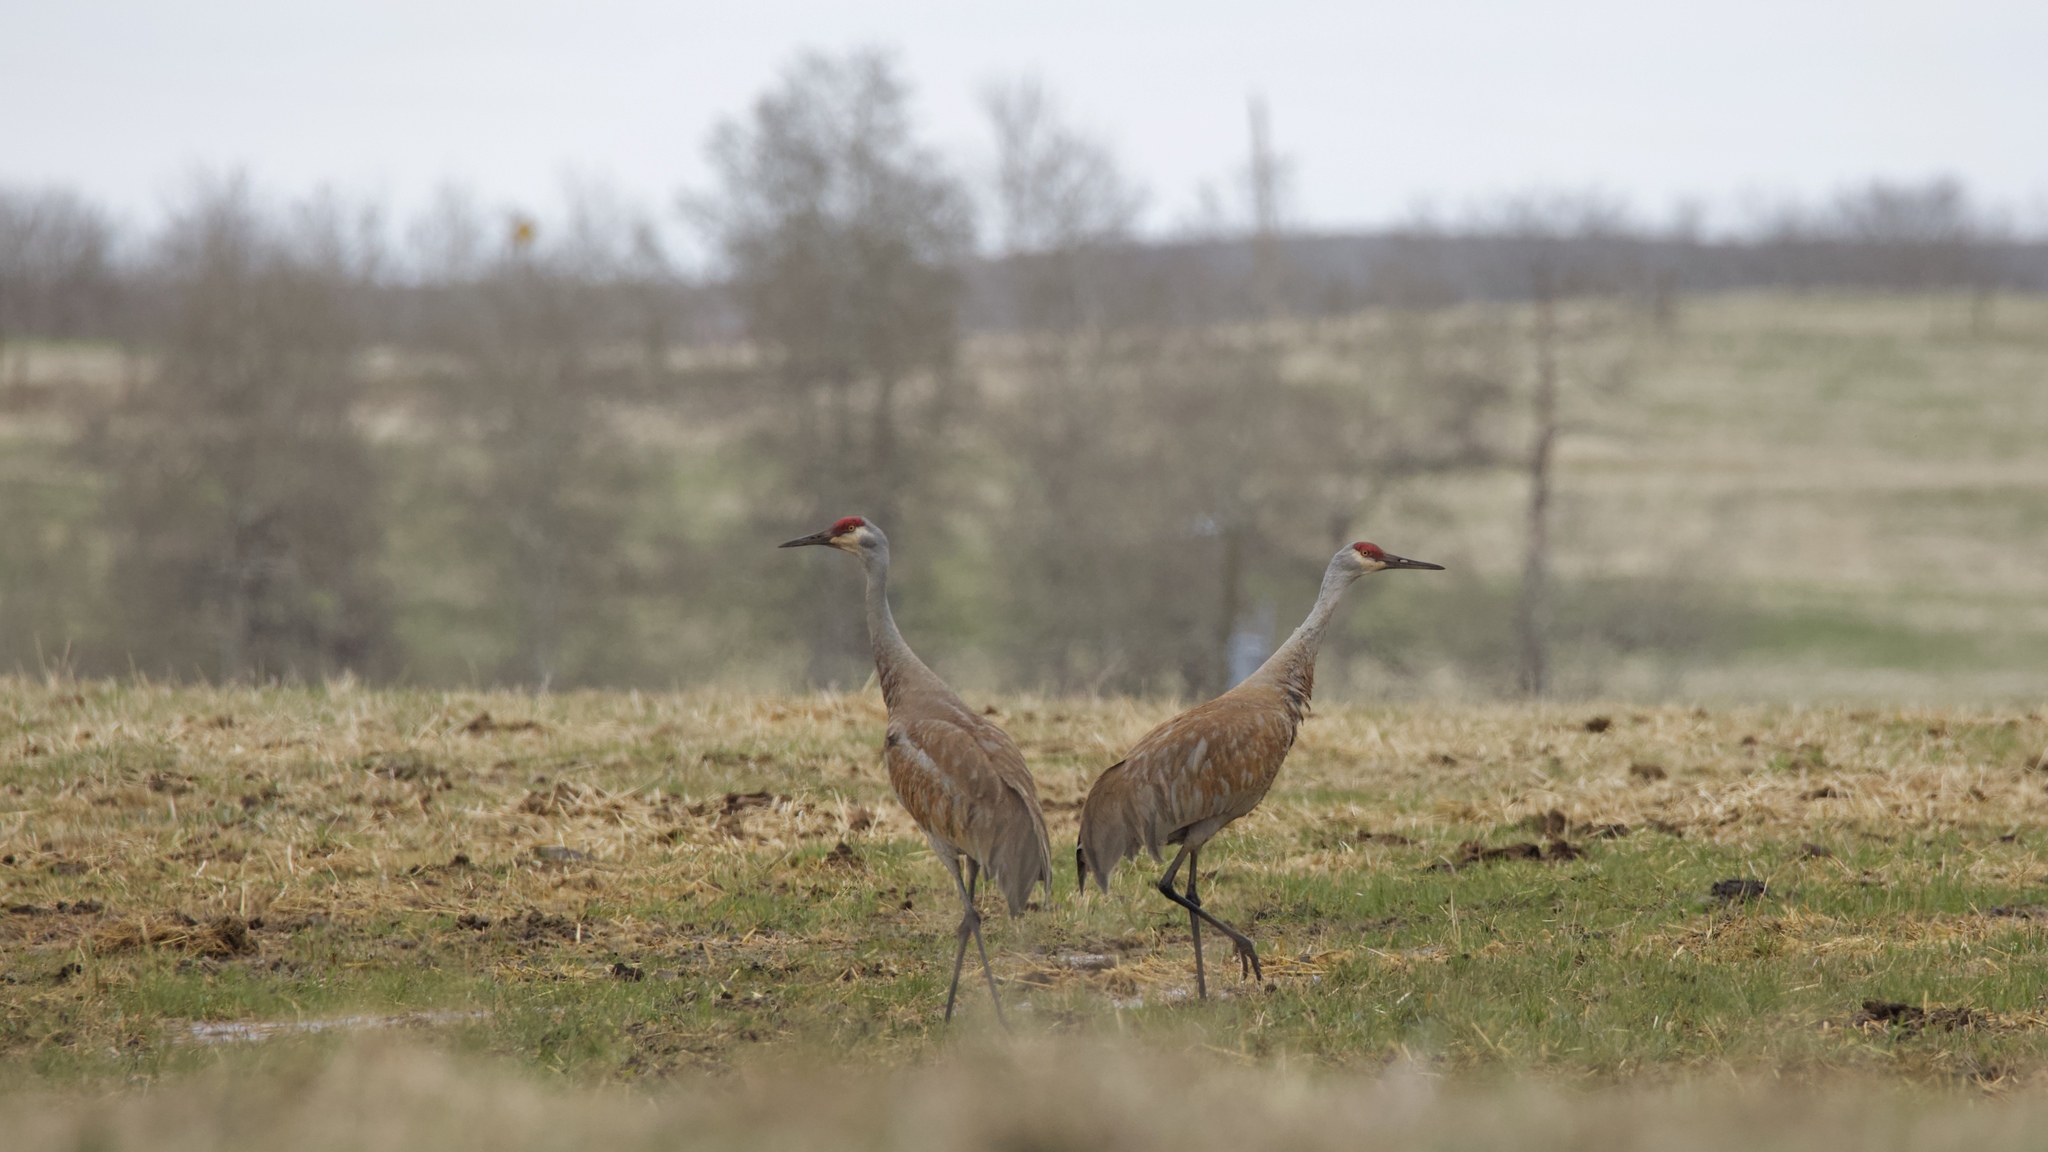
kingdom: Animalia
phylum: Chordata
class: Aves
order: Gruiformes
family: Gruidae
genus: Grus
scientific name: Grus canadensis
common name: Sandhill crane
